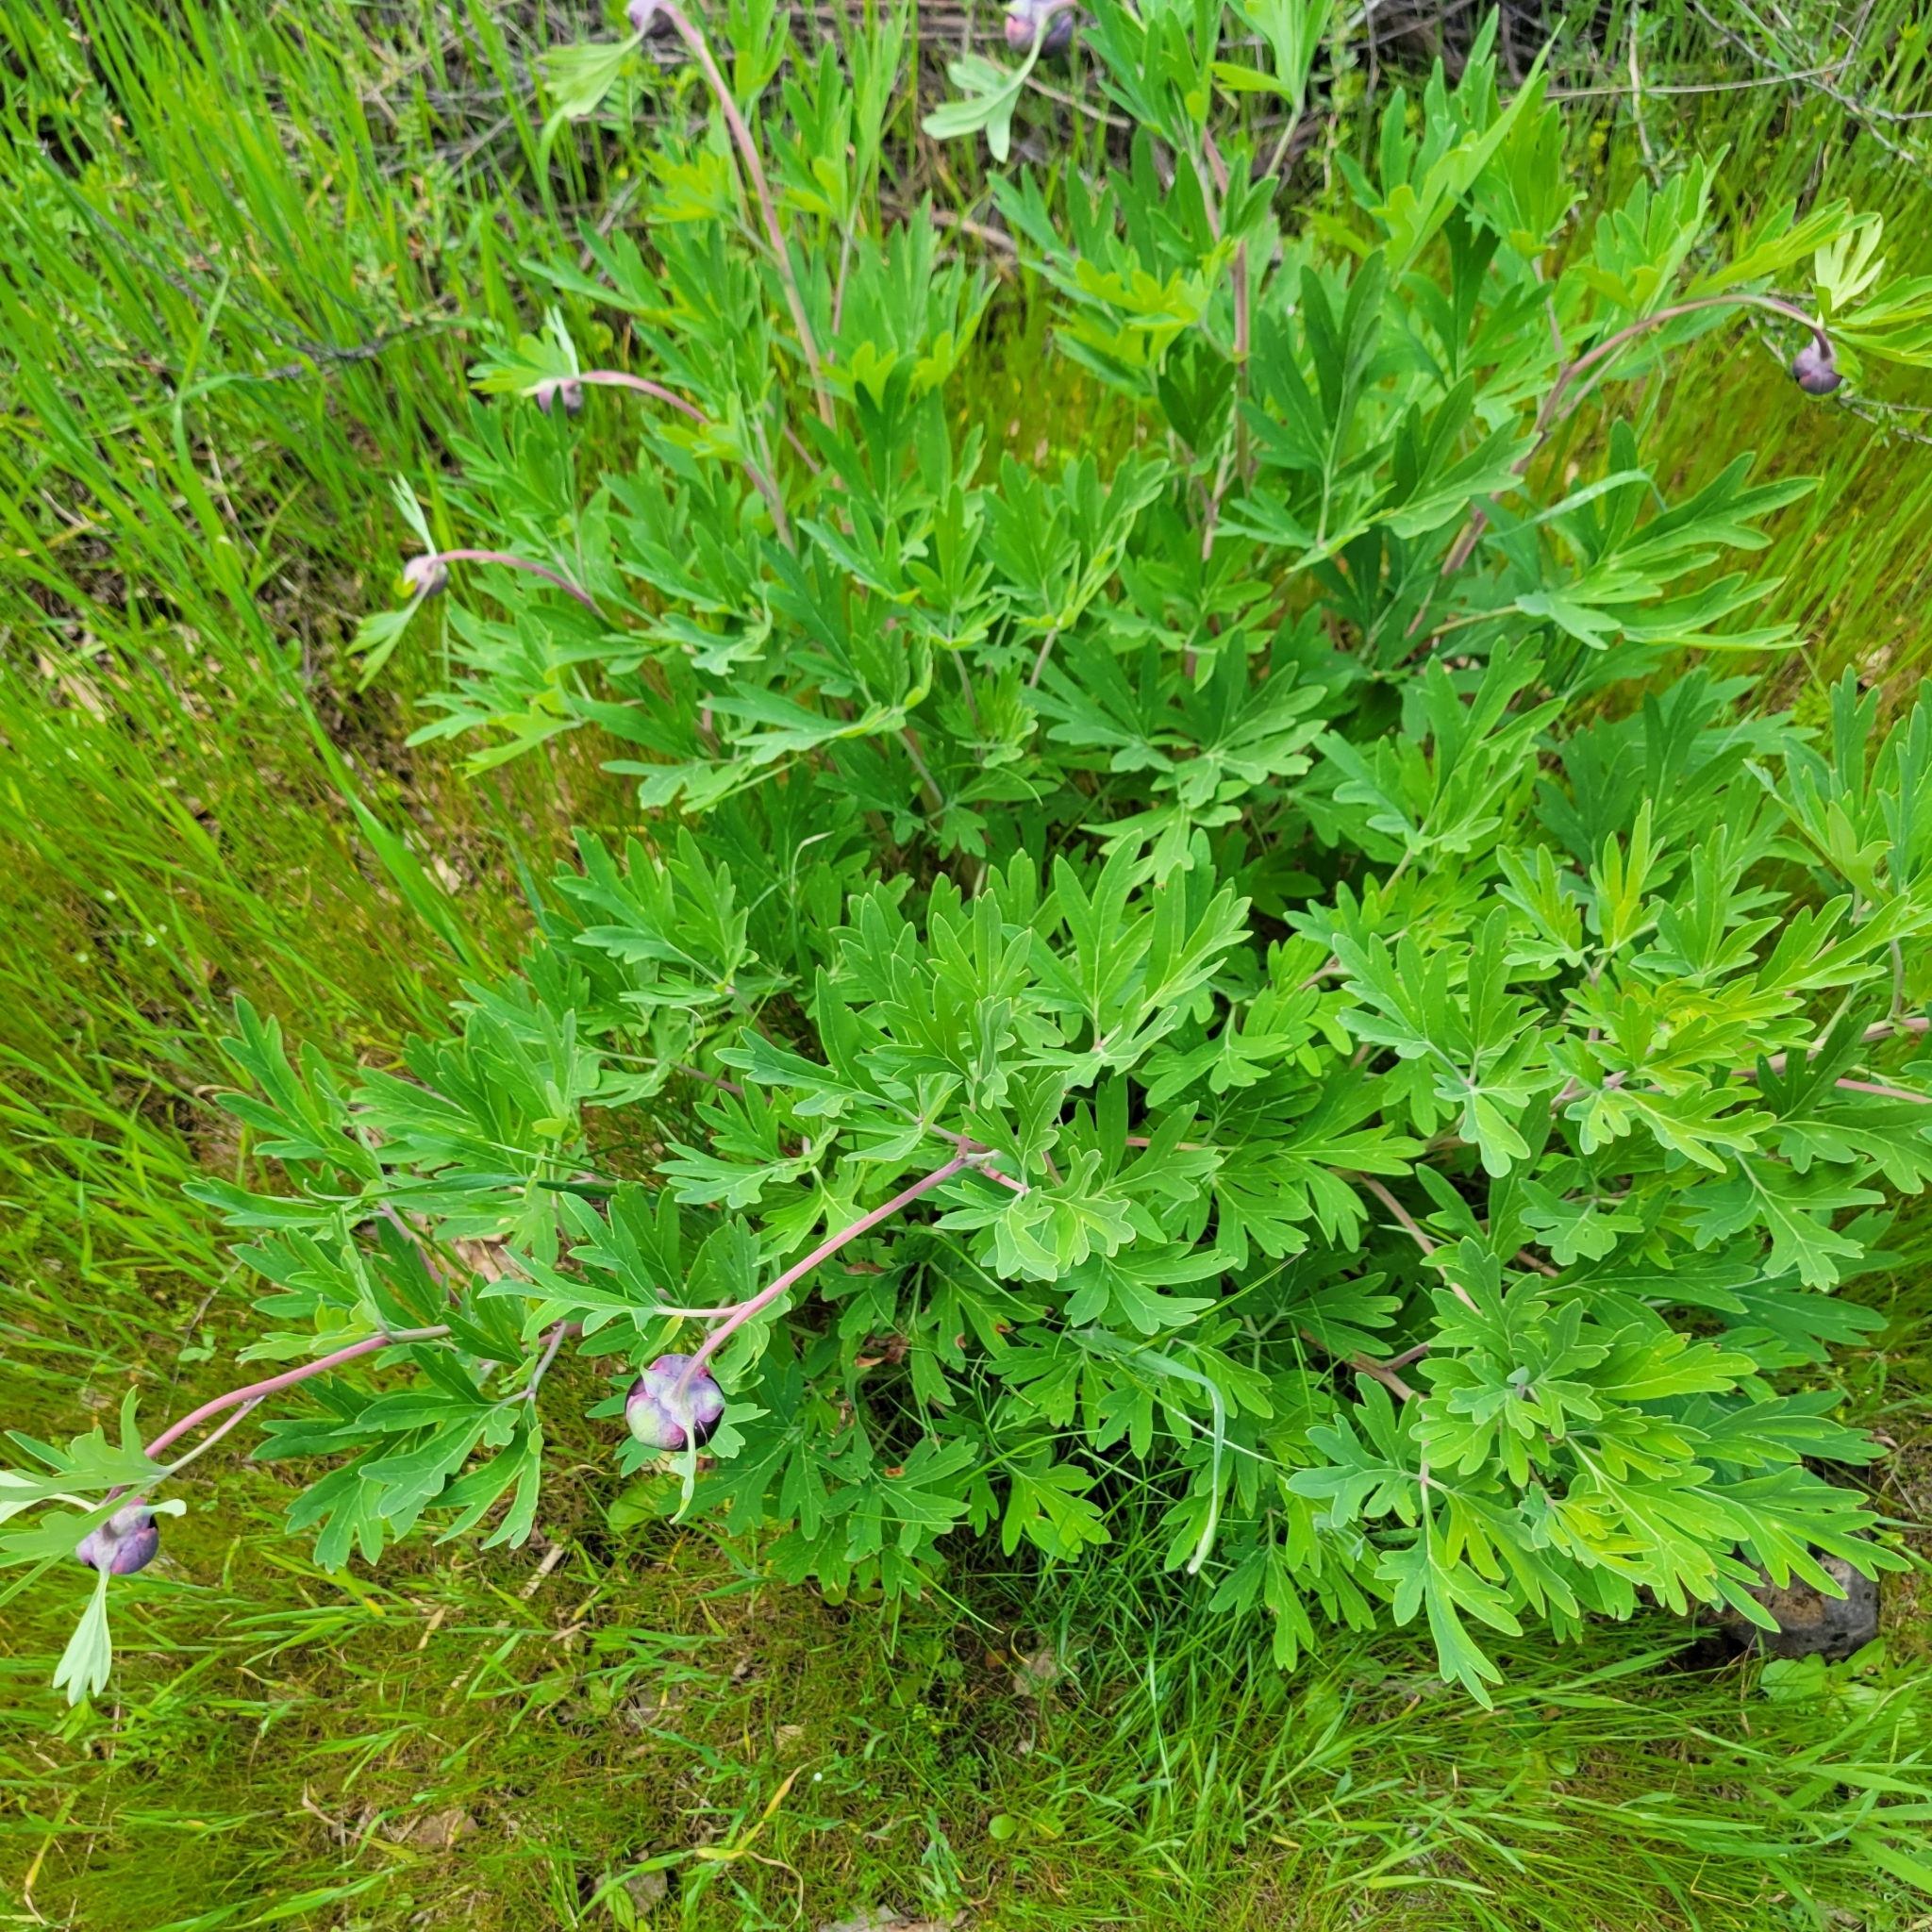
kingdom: Plantae
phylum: Tracheophyta
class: Magnoliopsida
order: Saxifragales
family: Paeoniaceae
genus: Paeonia
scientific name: Paeonia californica
